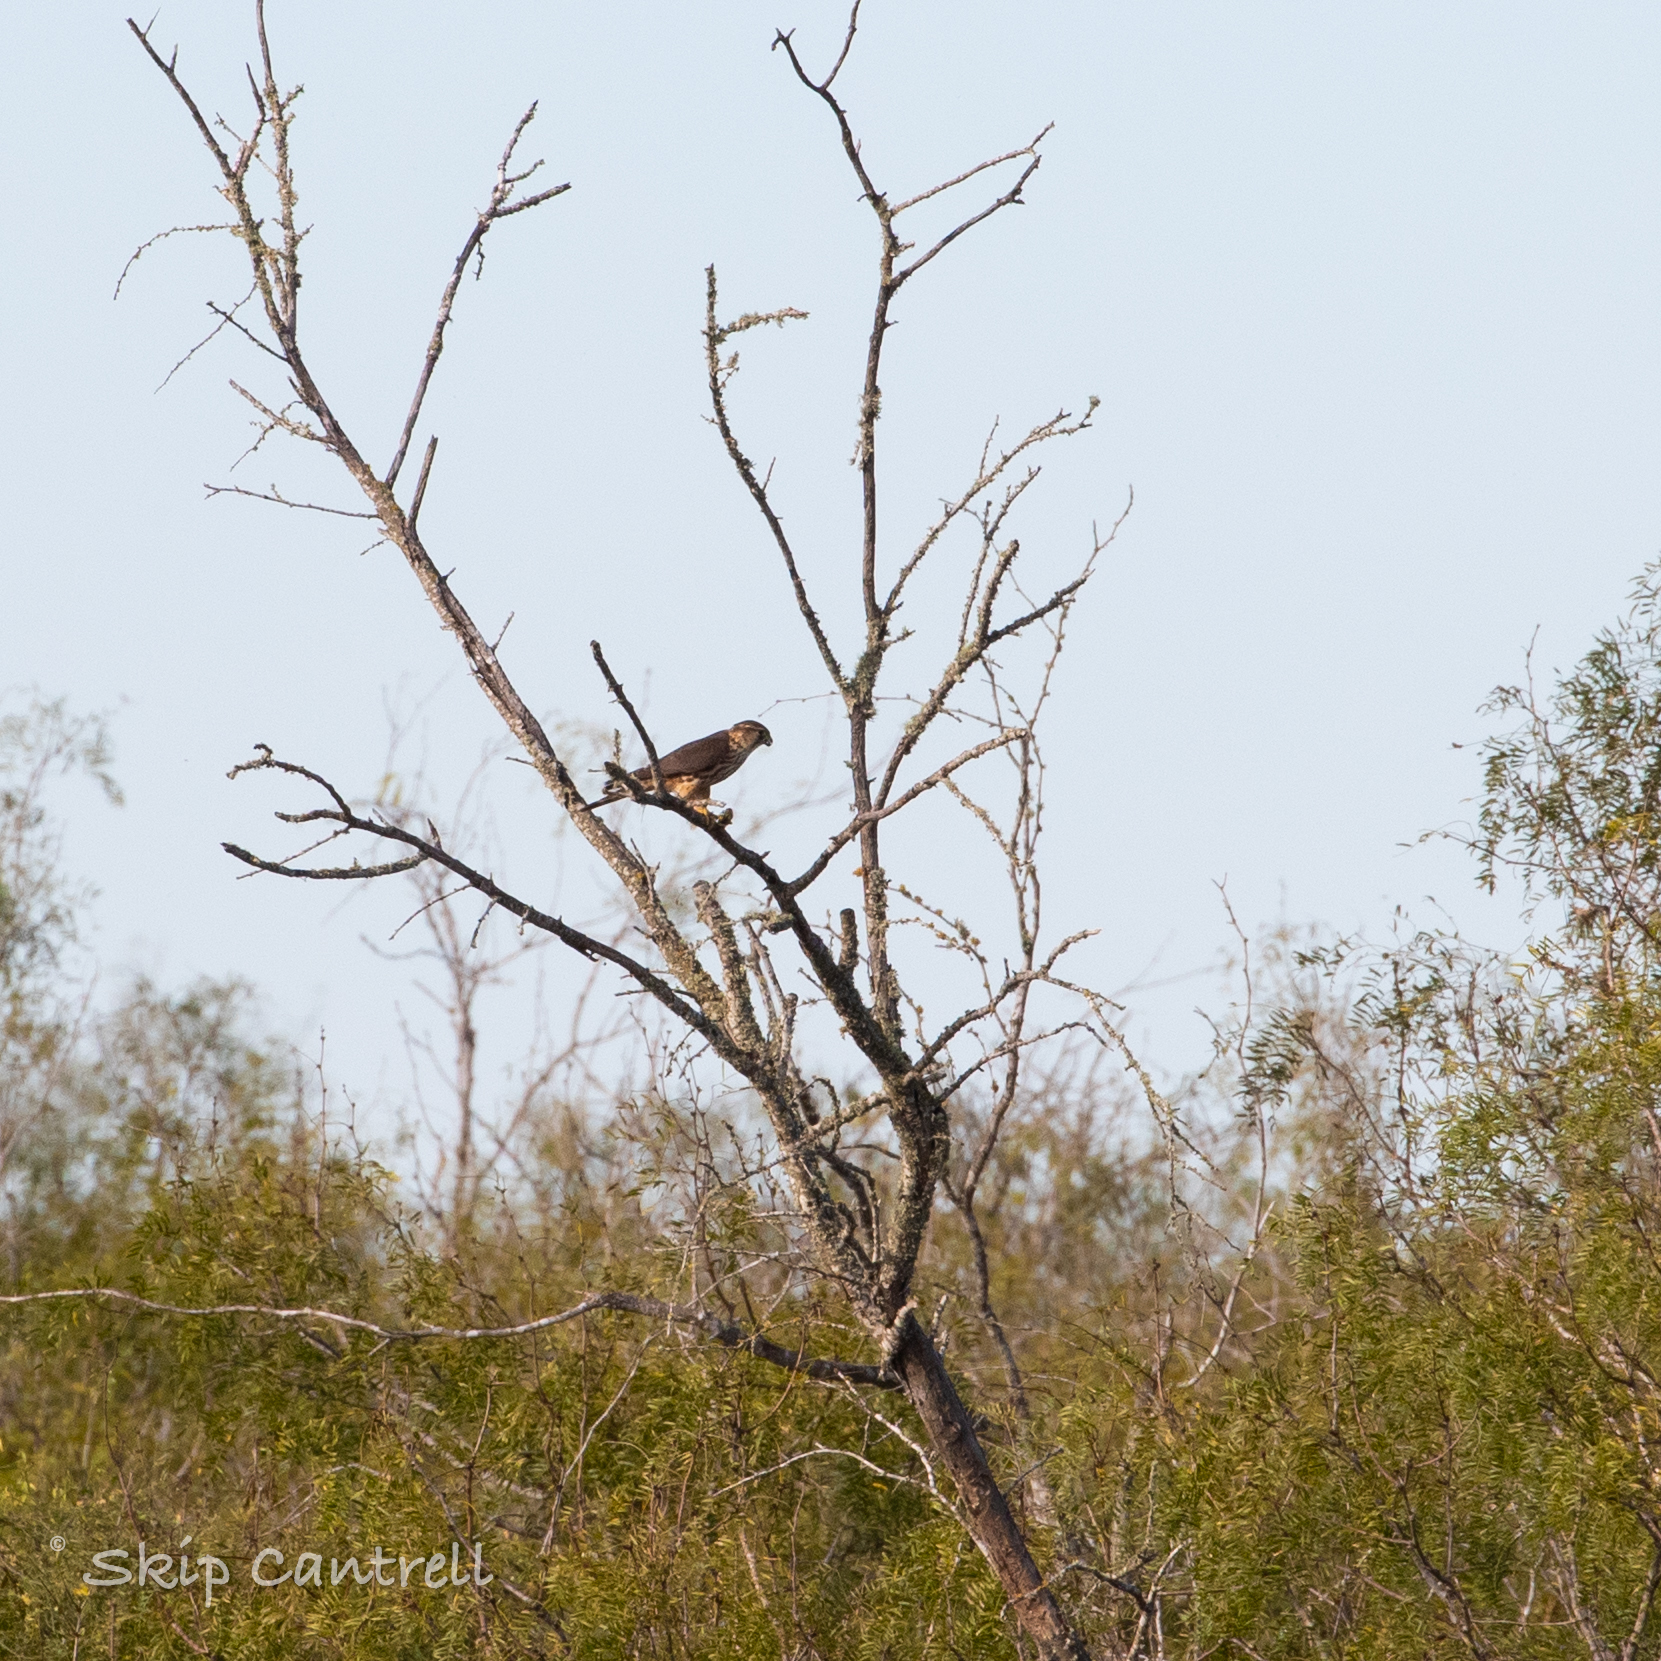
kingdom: Animalia
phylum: Chordata
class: Aves
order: Falconiformes
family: Falconidae
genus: Falco
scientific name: Falco columbarius
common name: Merlin
